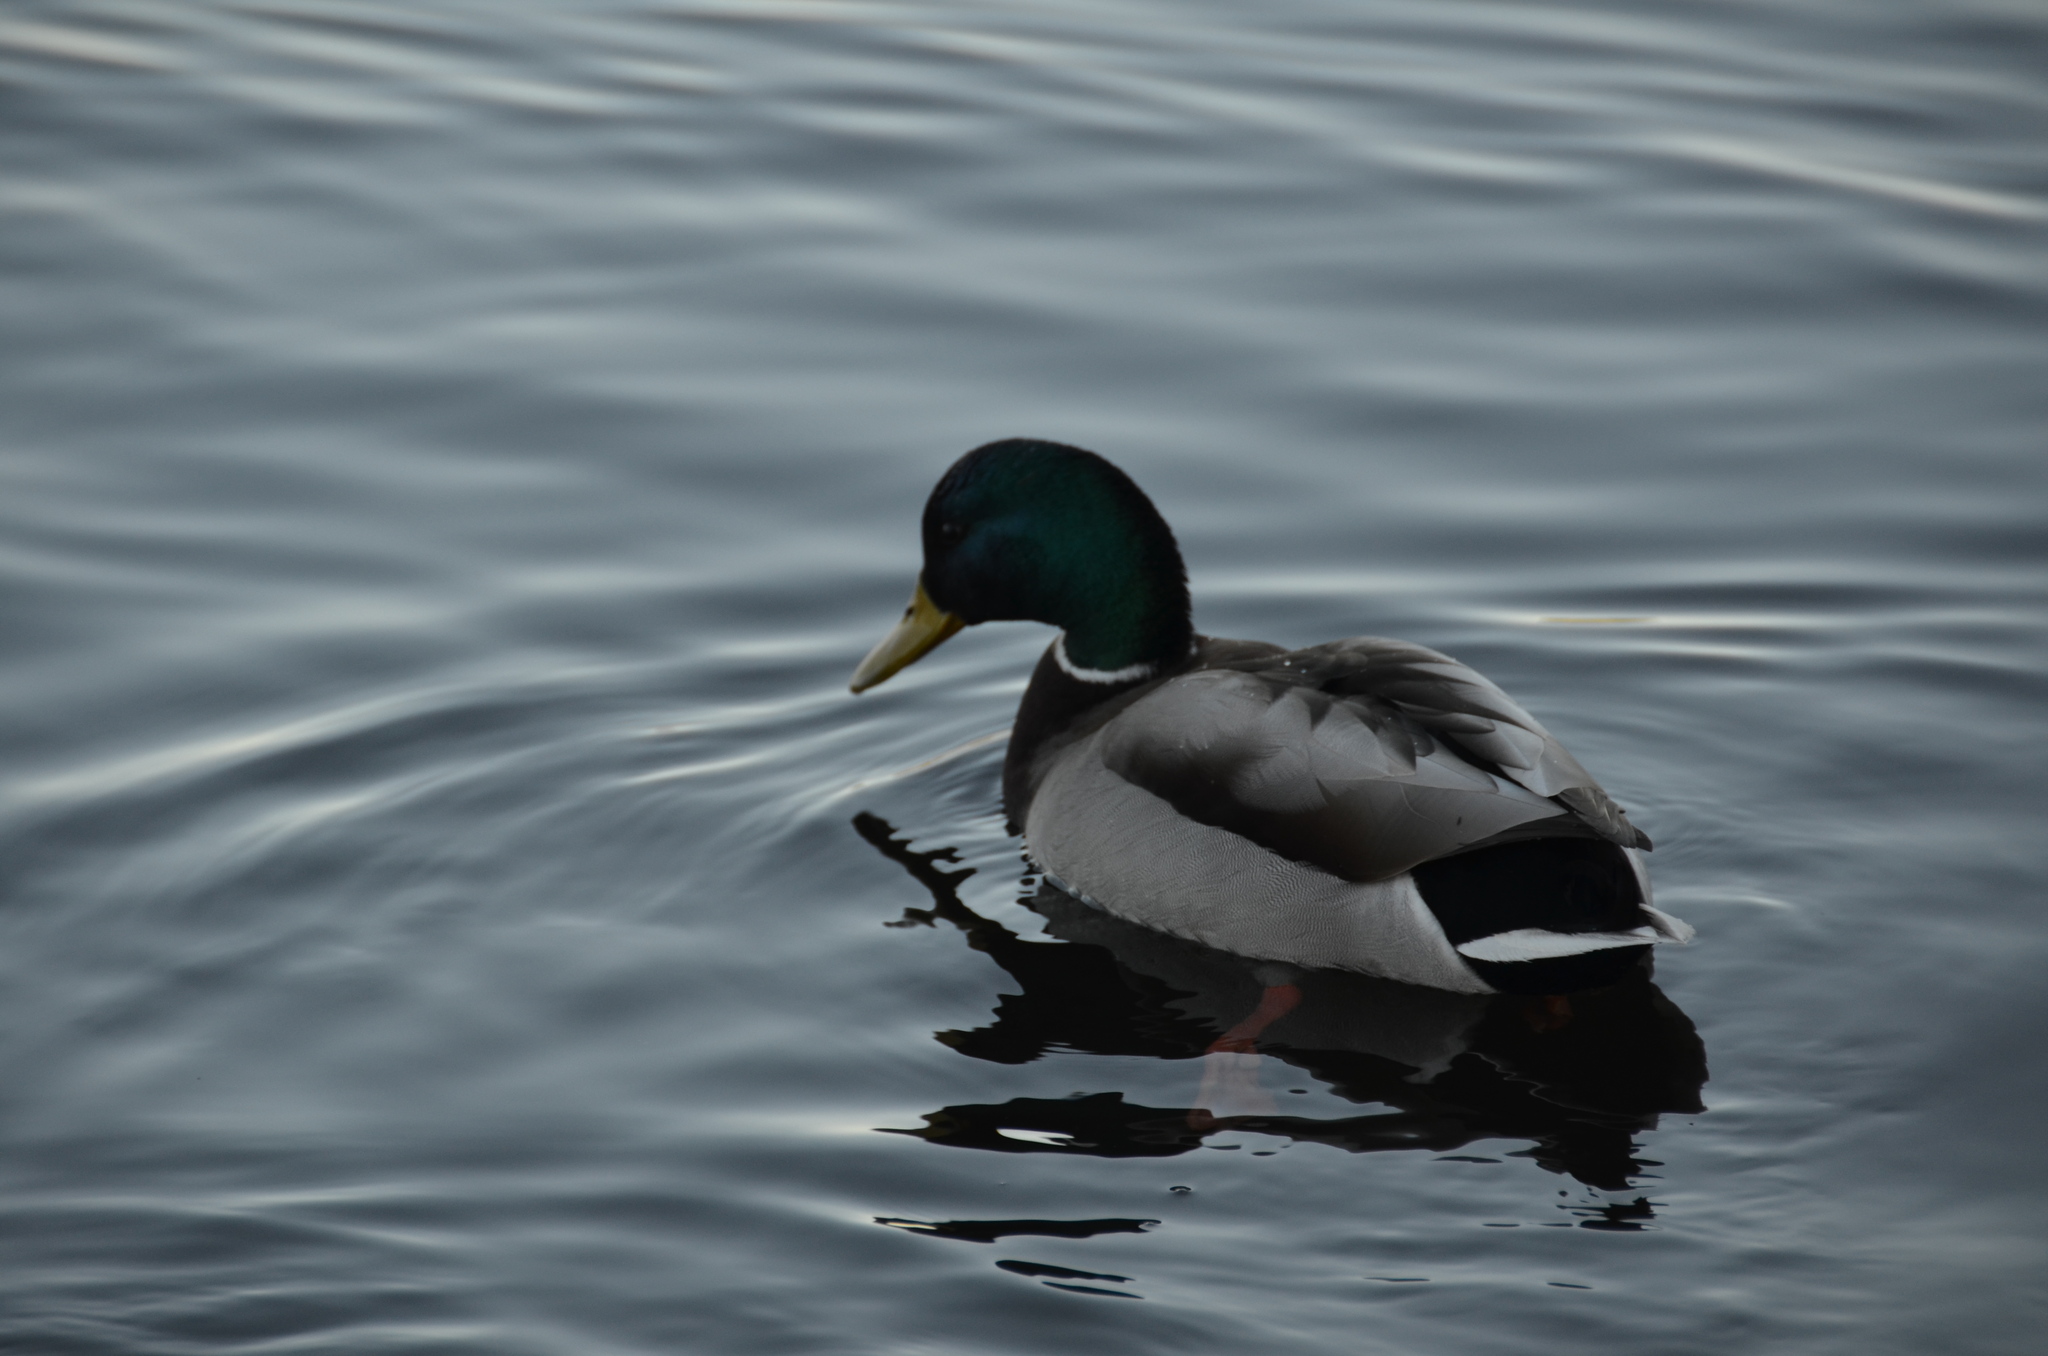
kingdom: Animalia
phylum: Chordata
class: Aves
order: Anseriformes
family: Anatidae
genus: Anas
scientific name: Anas platyrhynchos
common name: Mallard
